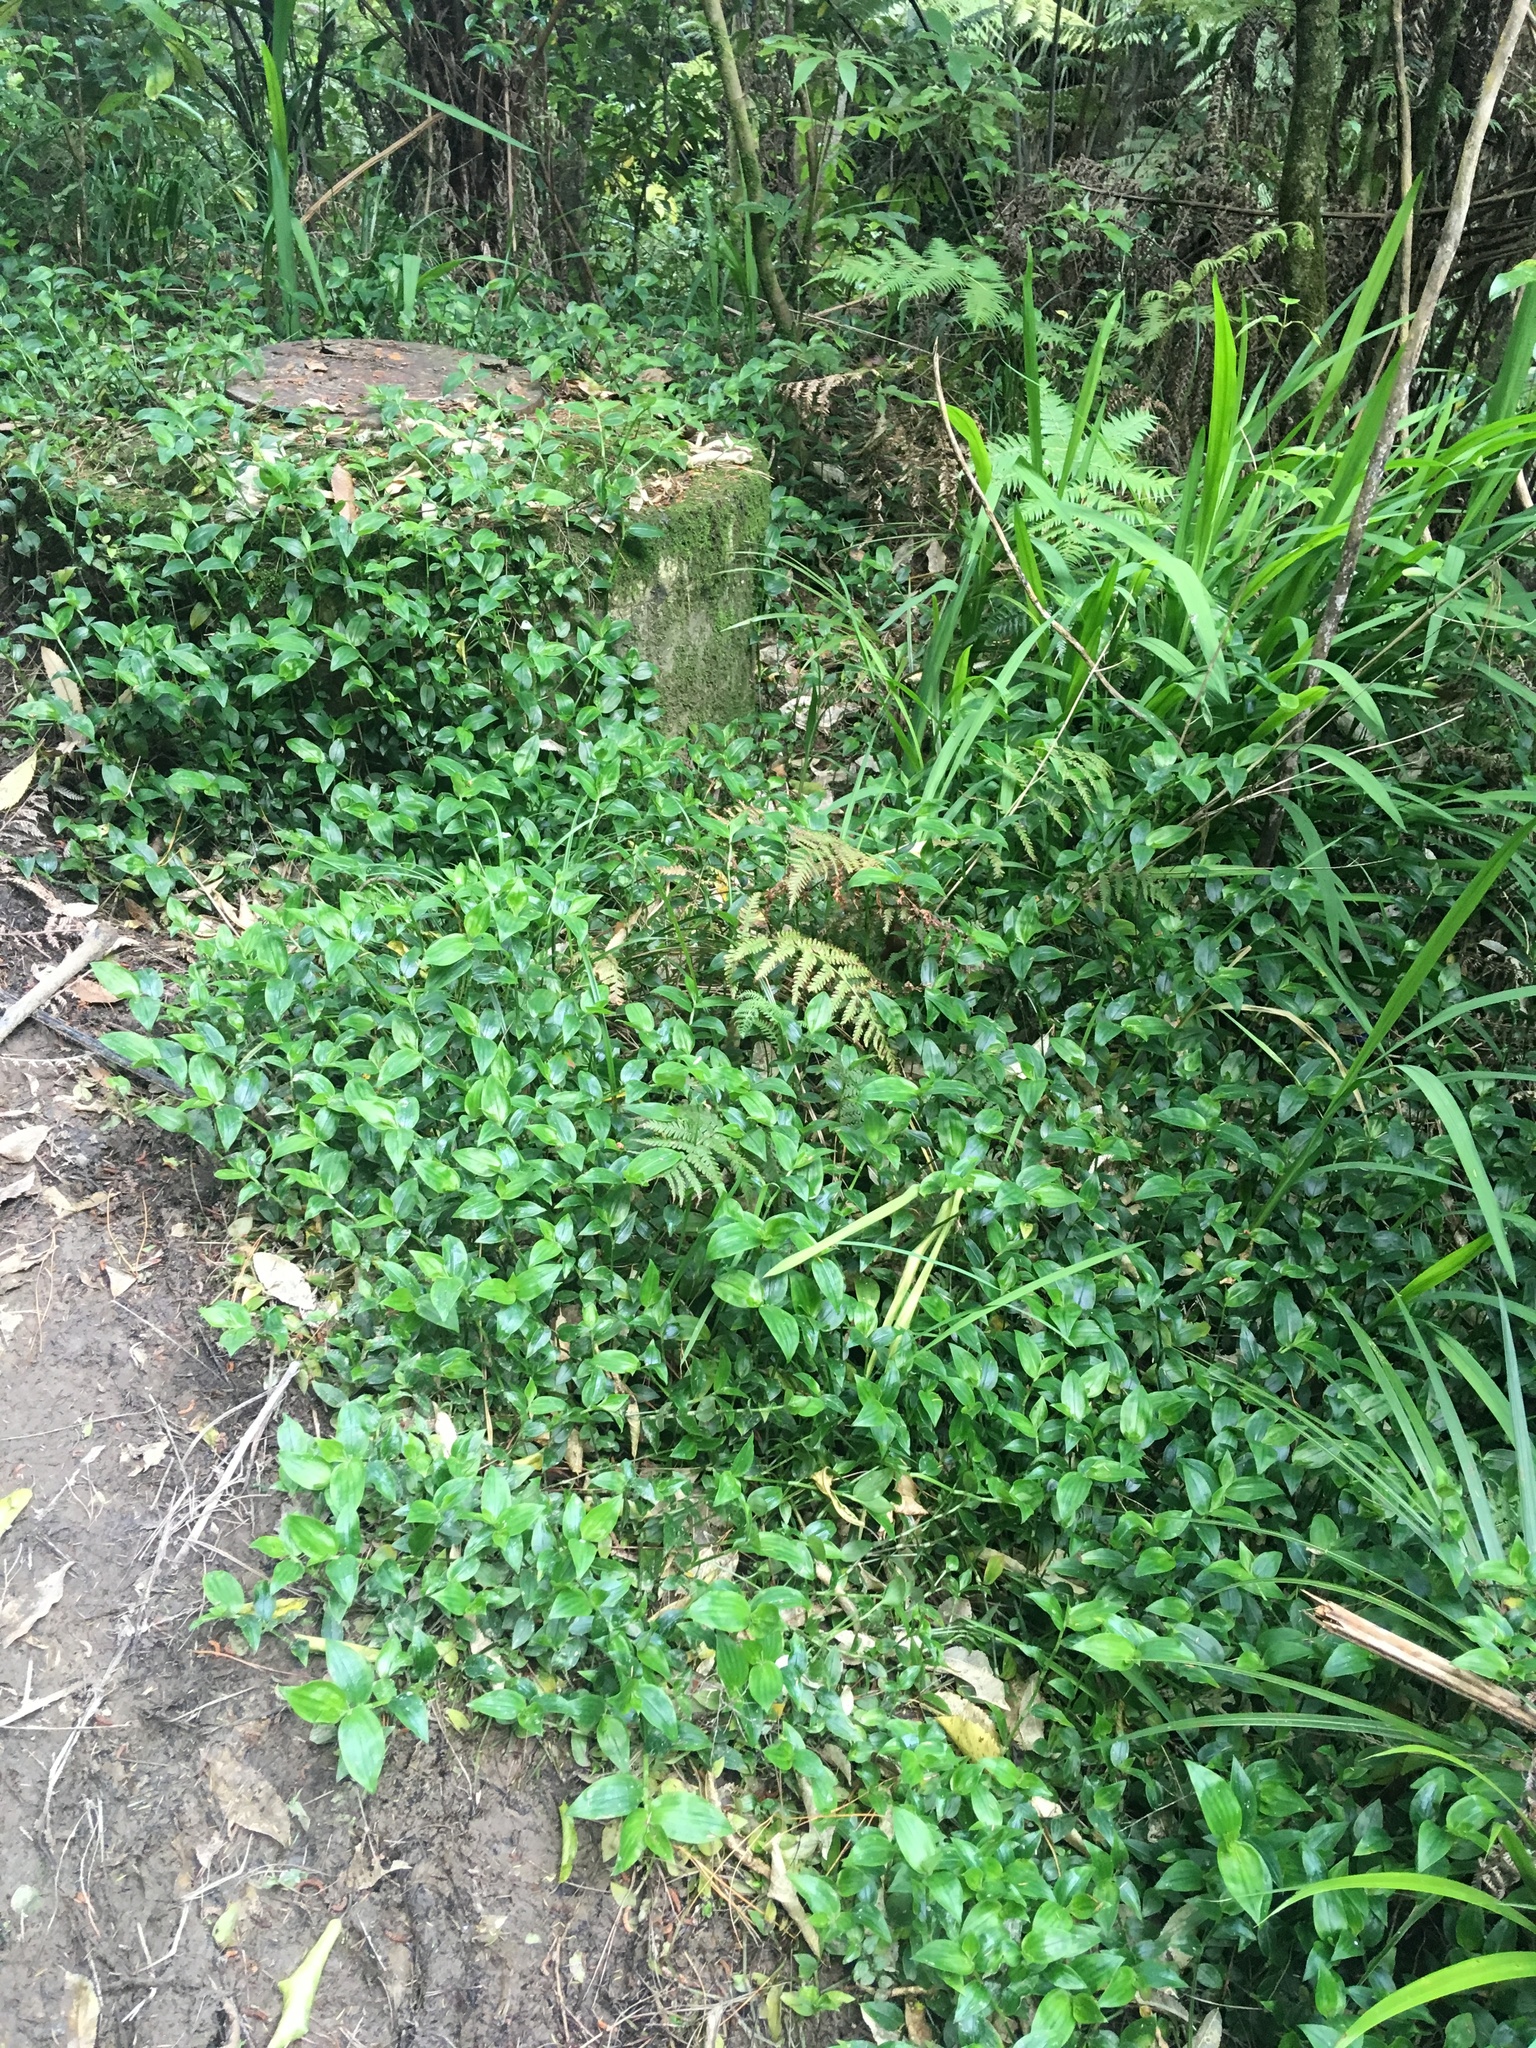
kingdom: Plantae
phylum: Tracheophyta
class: Liliopsida
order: Commelinales
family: Commelinaceae
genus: Tradescantia
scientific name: Tradescantia fluminensis
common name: Wandering-jew
